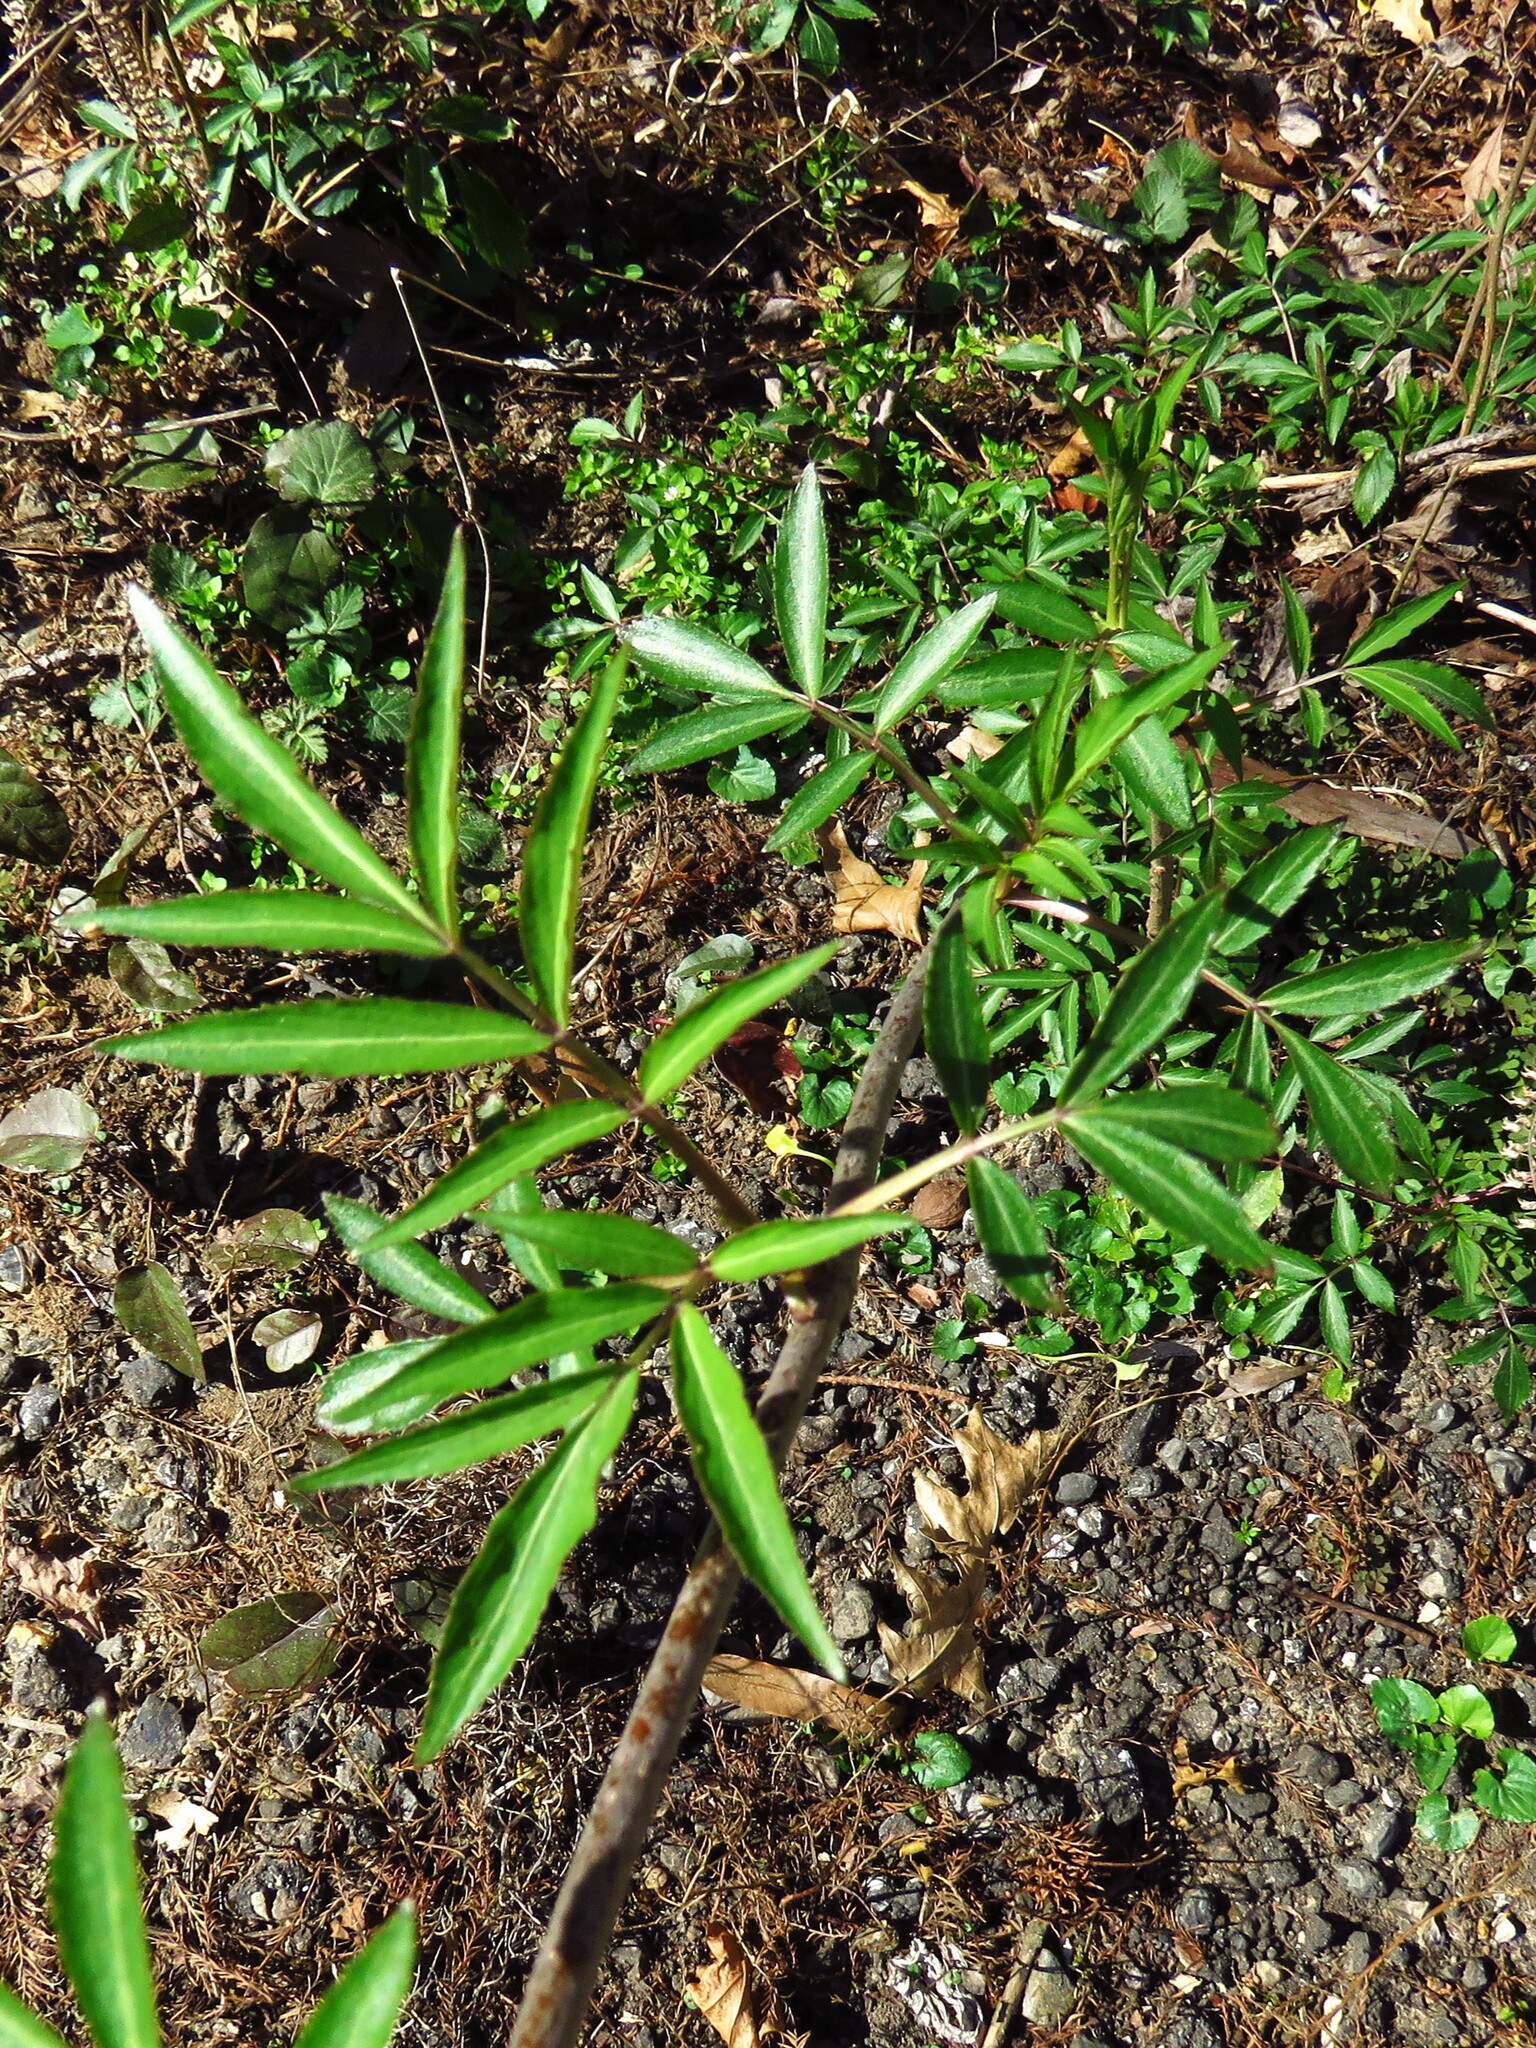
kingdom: Plantae
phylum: Tracheophyta
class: Magnoliopsida
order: Dipsacales
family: Viburnaceae
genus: Sambucus
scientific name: Sambucus canadensis
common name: American elder
